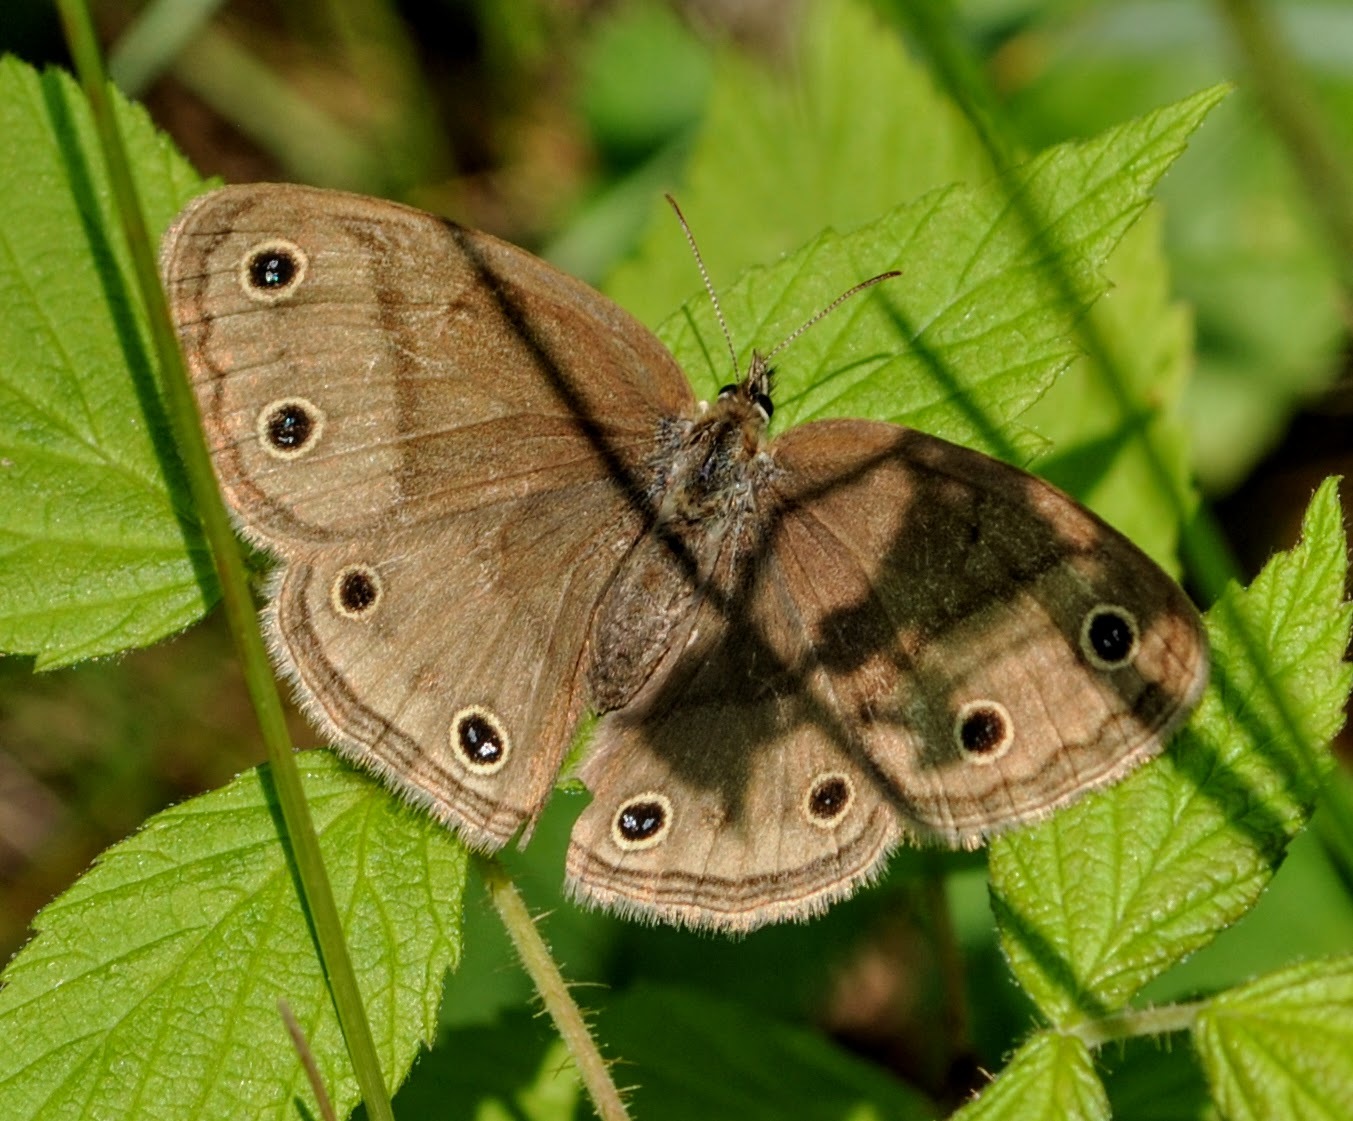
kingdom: Animalia
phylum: Arthropoda
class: Insecta
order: Lepidoptera
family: Nymphalidae
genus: Euptychia
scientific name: Euptychia cymela
